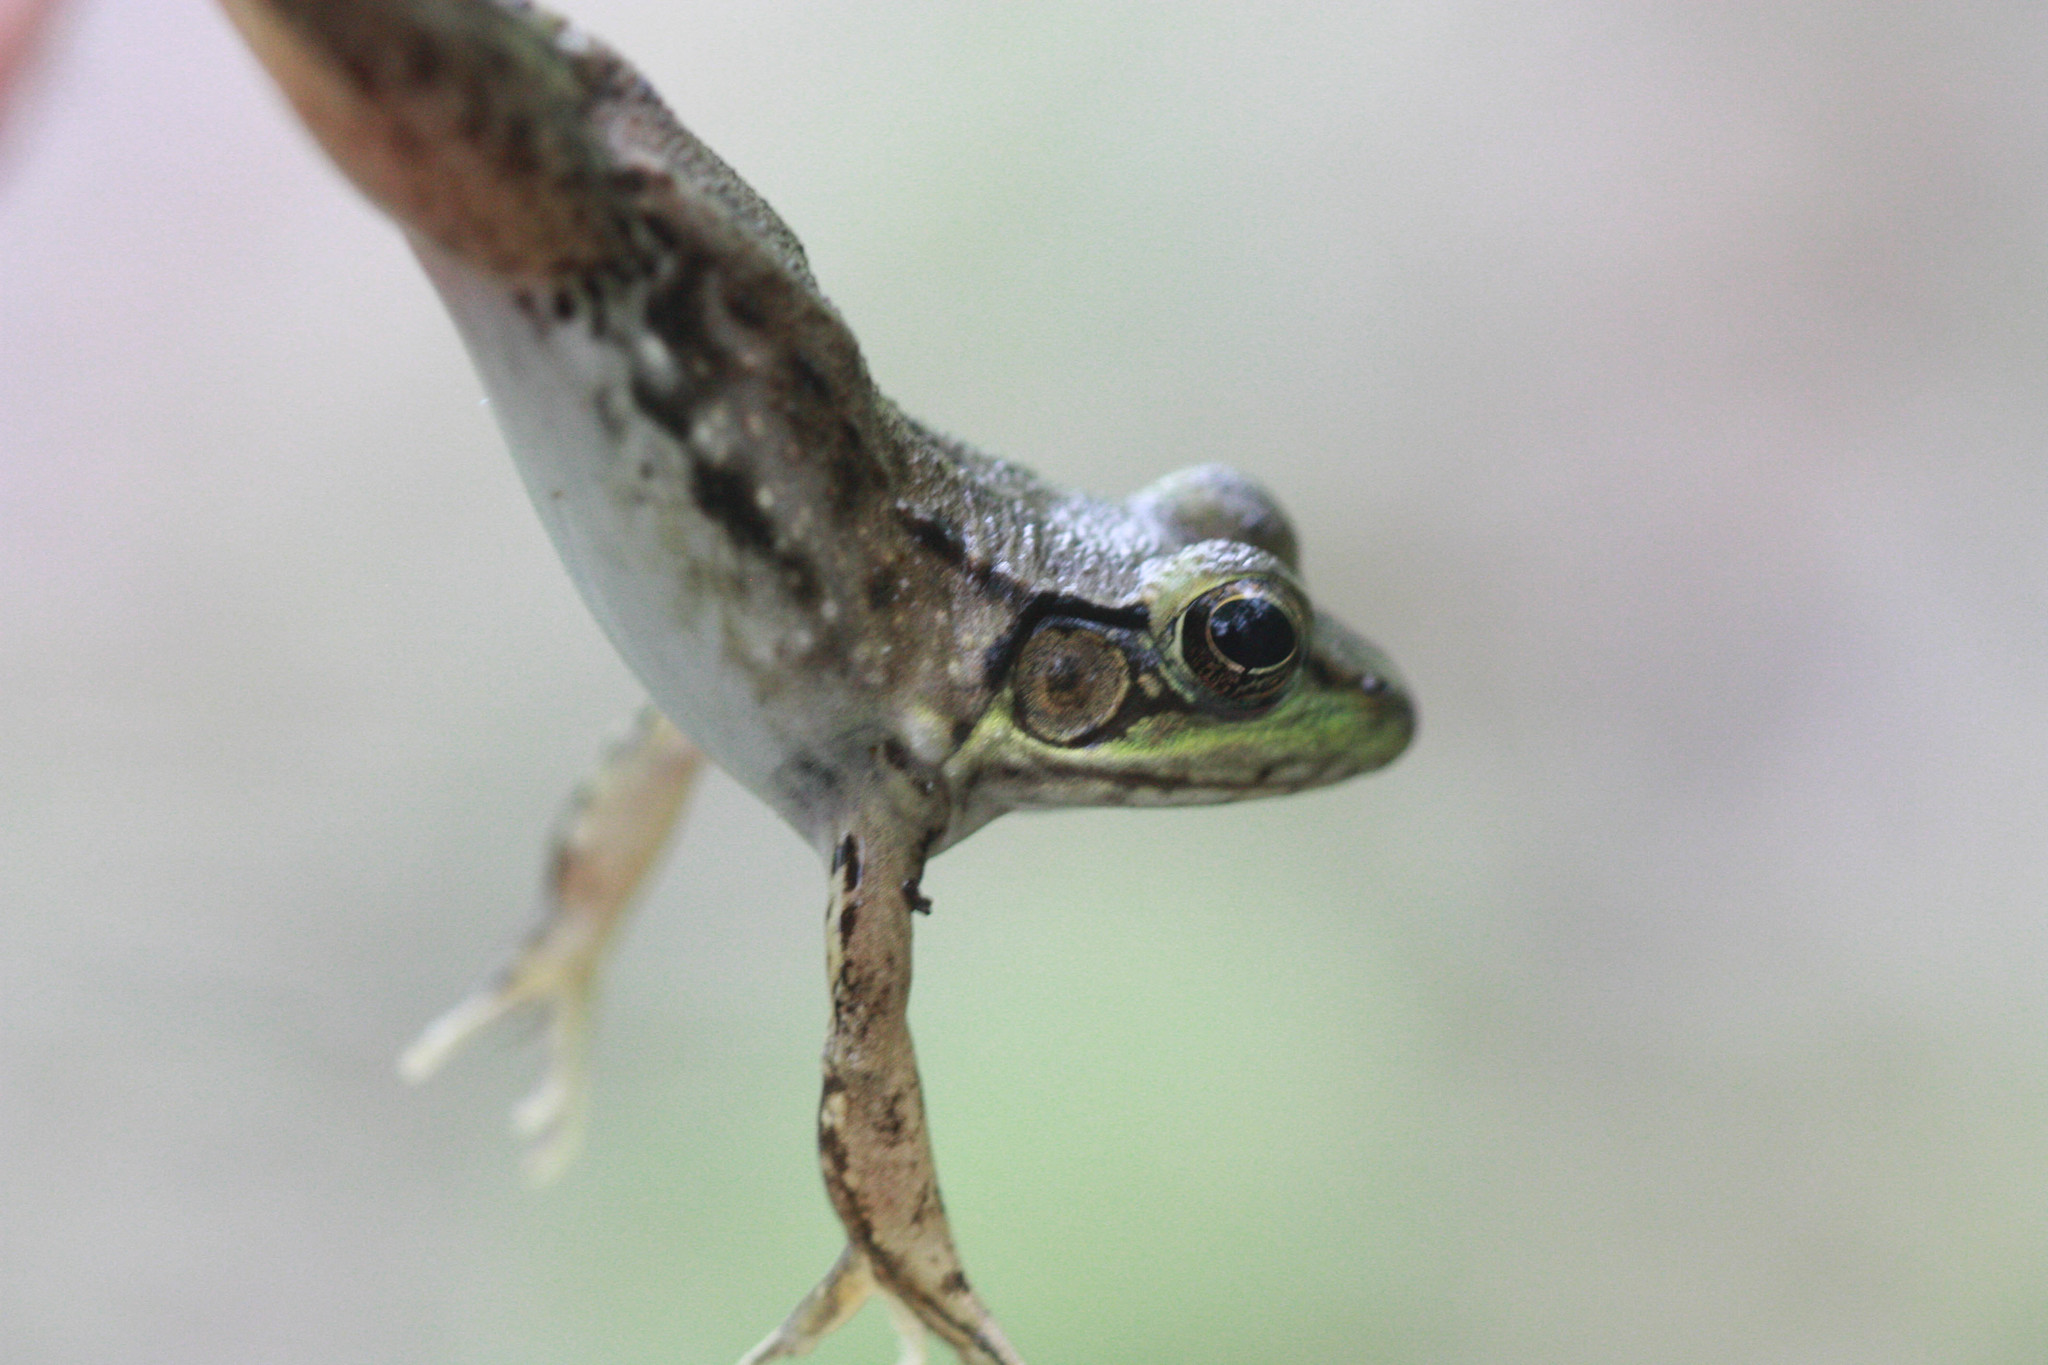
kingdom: Animalia
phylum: Chordata
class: Amphibia
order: Anura
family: Ranidae
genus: Lithobates
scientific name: Lithobates clamitans
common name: Green frog
